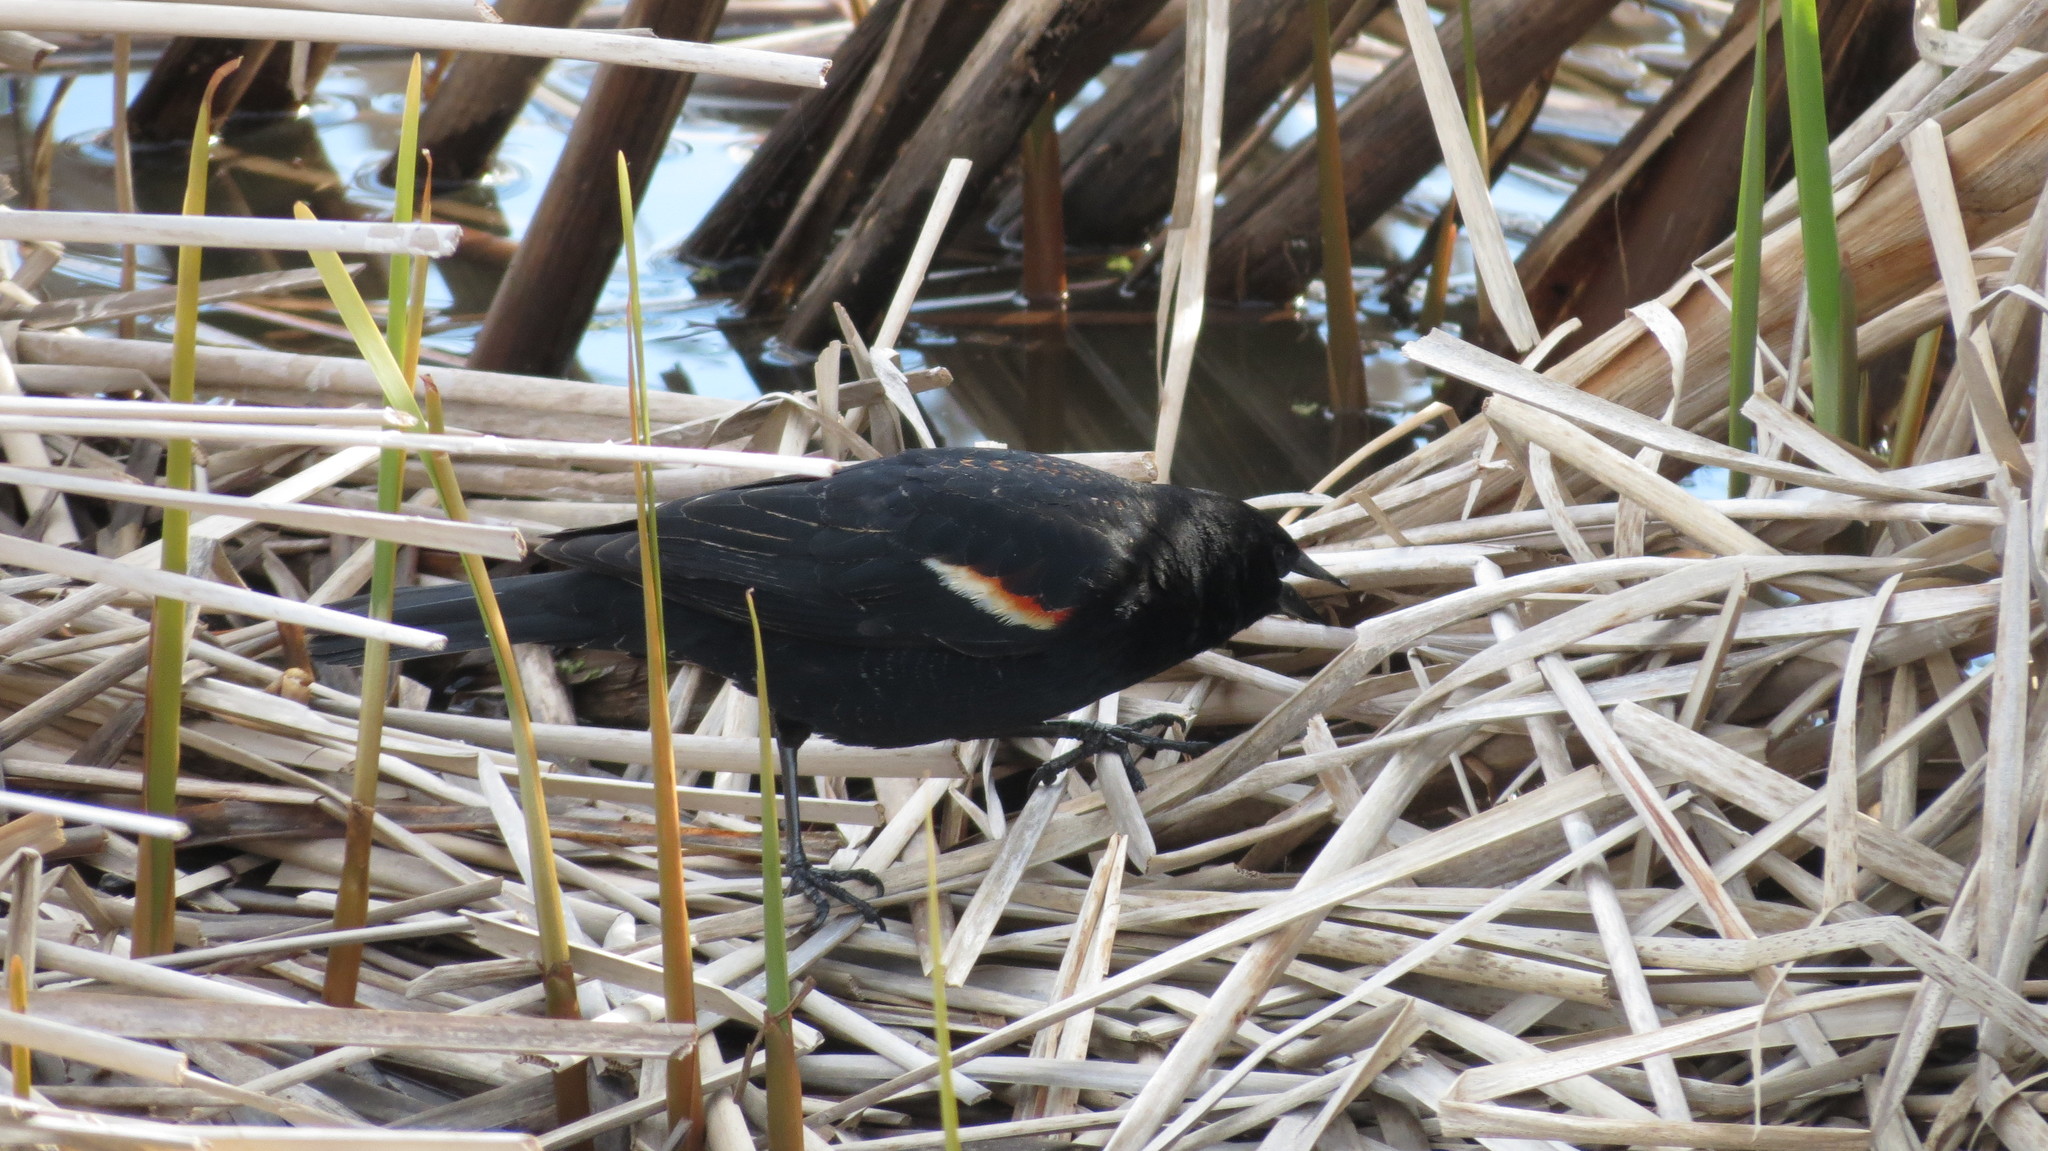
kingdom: Animalia
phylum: Chordata
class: Aves
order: Passeriformes
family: Icteridae
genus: Agelaius
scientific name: Agelaius phoeniceus
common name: Red-winged blackbird
